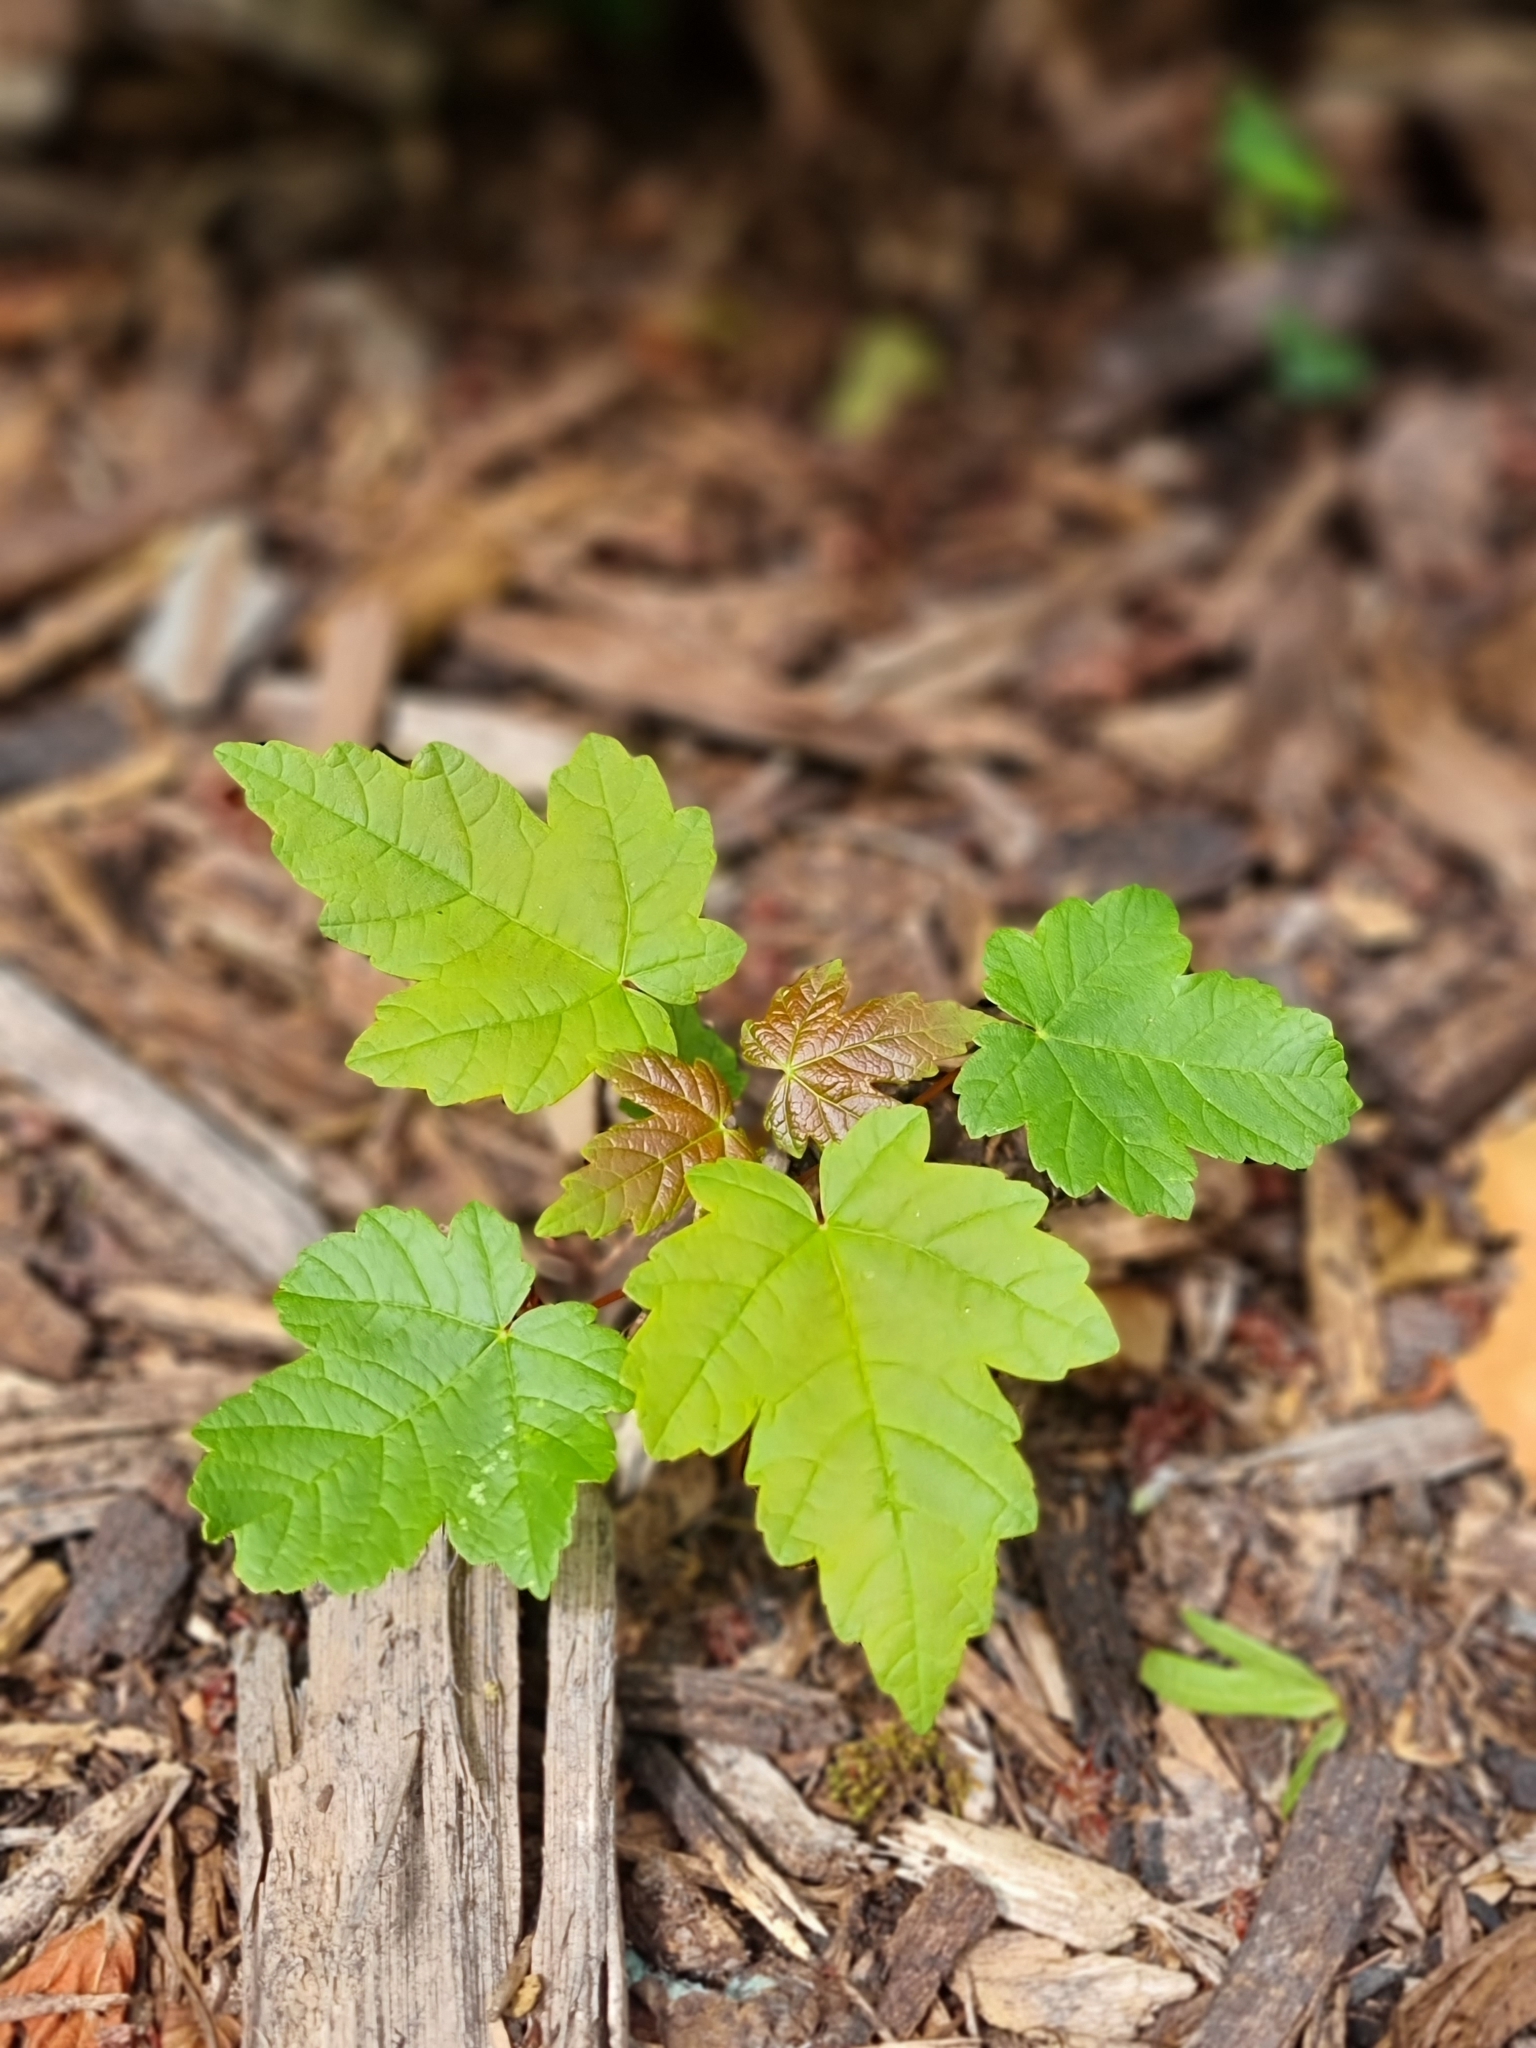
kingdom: Plantae
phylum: Tracheophyta
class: Magnoliopsida
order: Sapindales
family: Sapindaceae
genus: Acer
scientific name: Acer pseudoplatanus
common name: Sycamore
